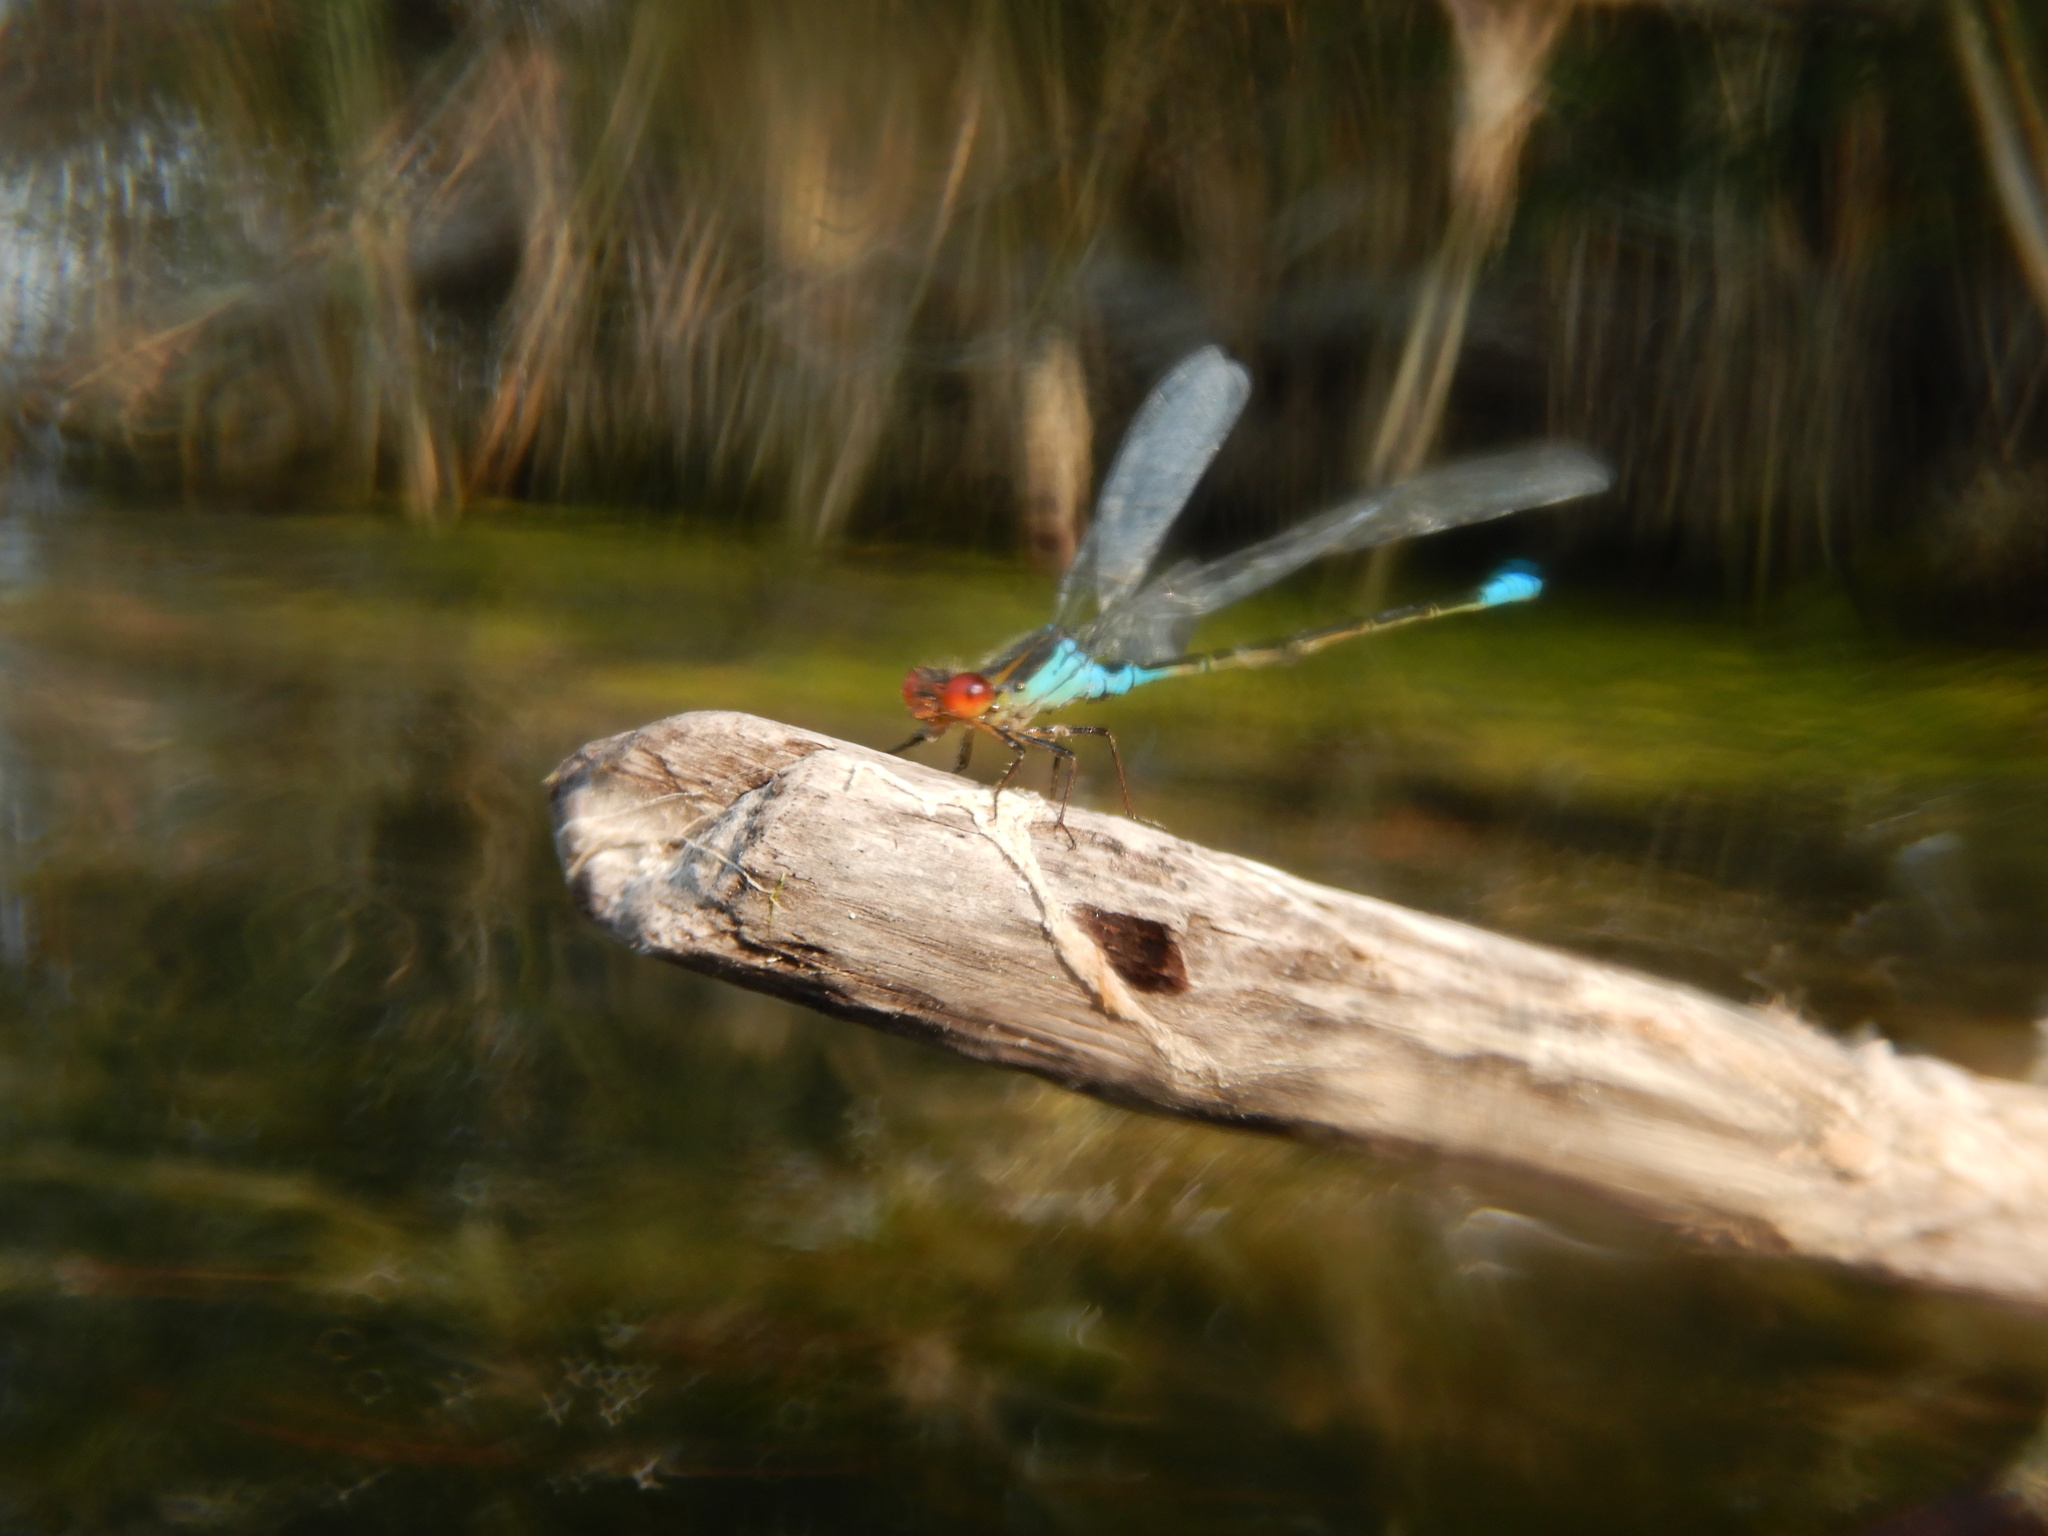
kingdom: Animalia
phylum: Arthropoda
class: Insecta
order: Odonata
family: Coenagrionidae
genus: Erythromma
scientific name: Erythromma viridulum
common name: Small red-eyed damselfly
